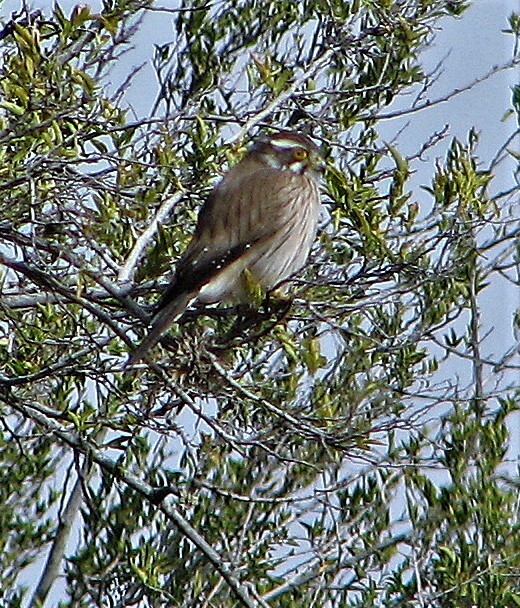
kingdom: Animalia
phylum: Chordata
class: Aves
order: Falconiformes
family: Falconidae
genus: Spiziapteryx
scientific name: Spiziapteryx circumcincta
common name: Spot-winged falconet
